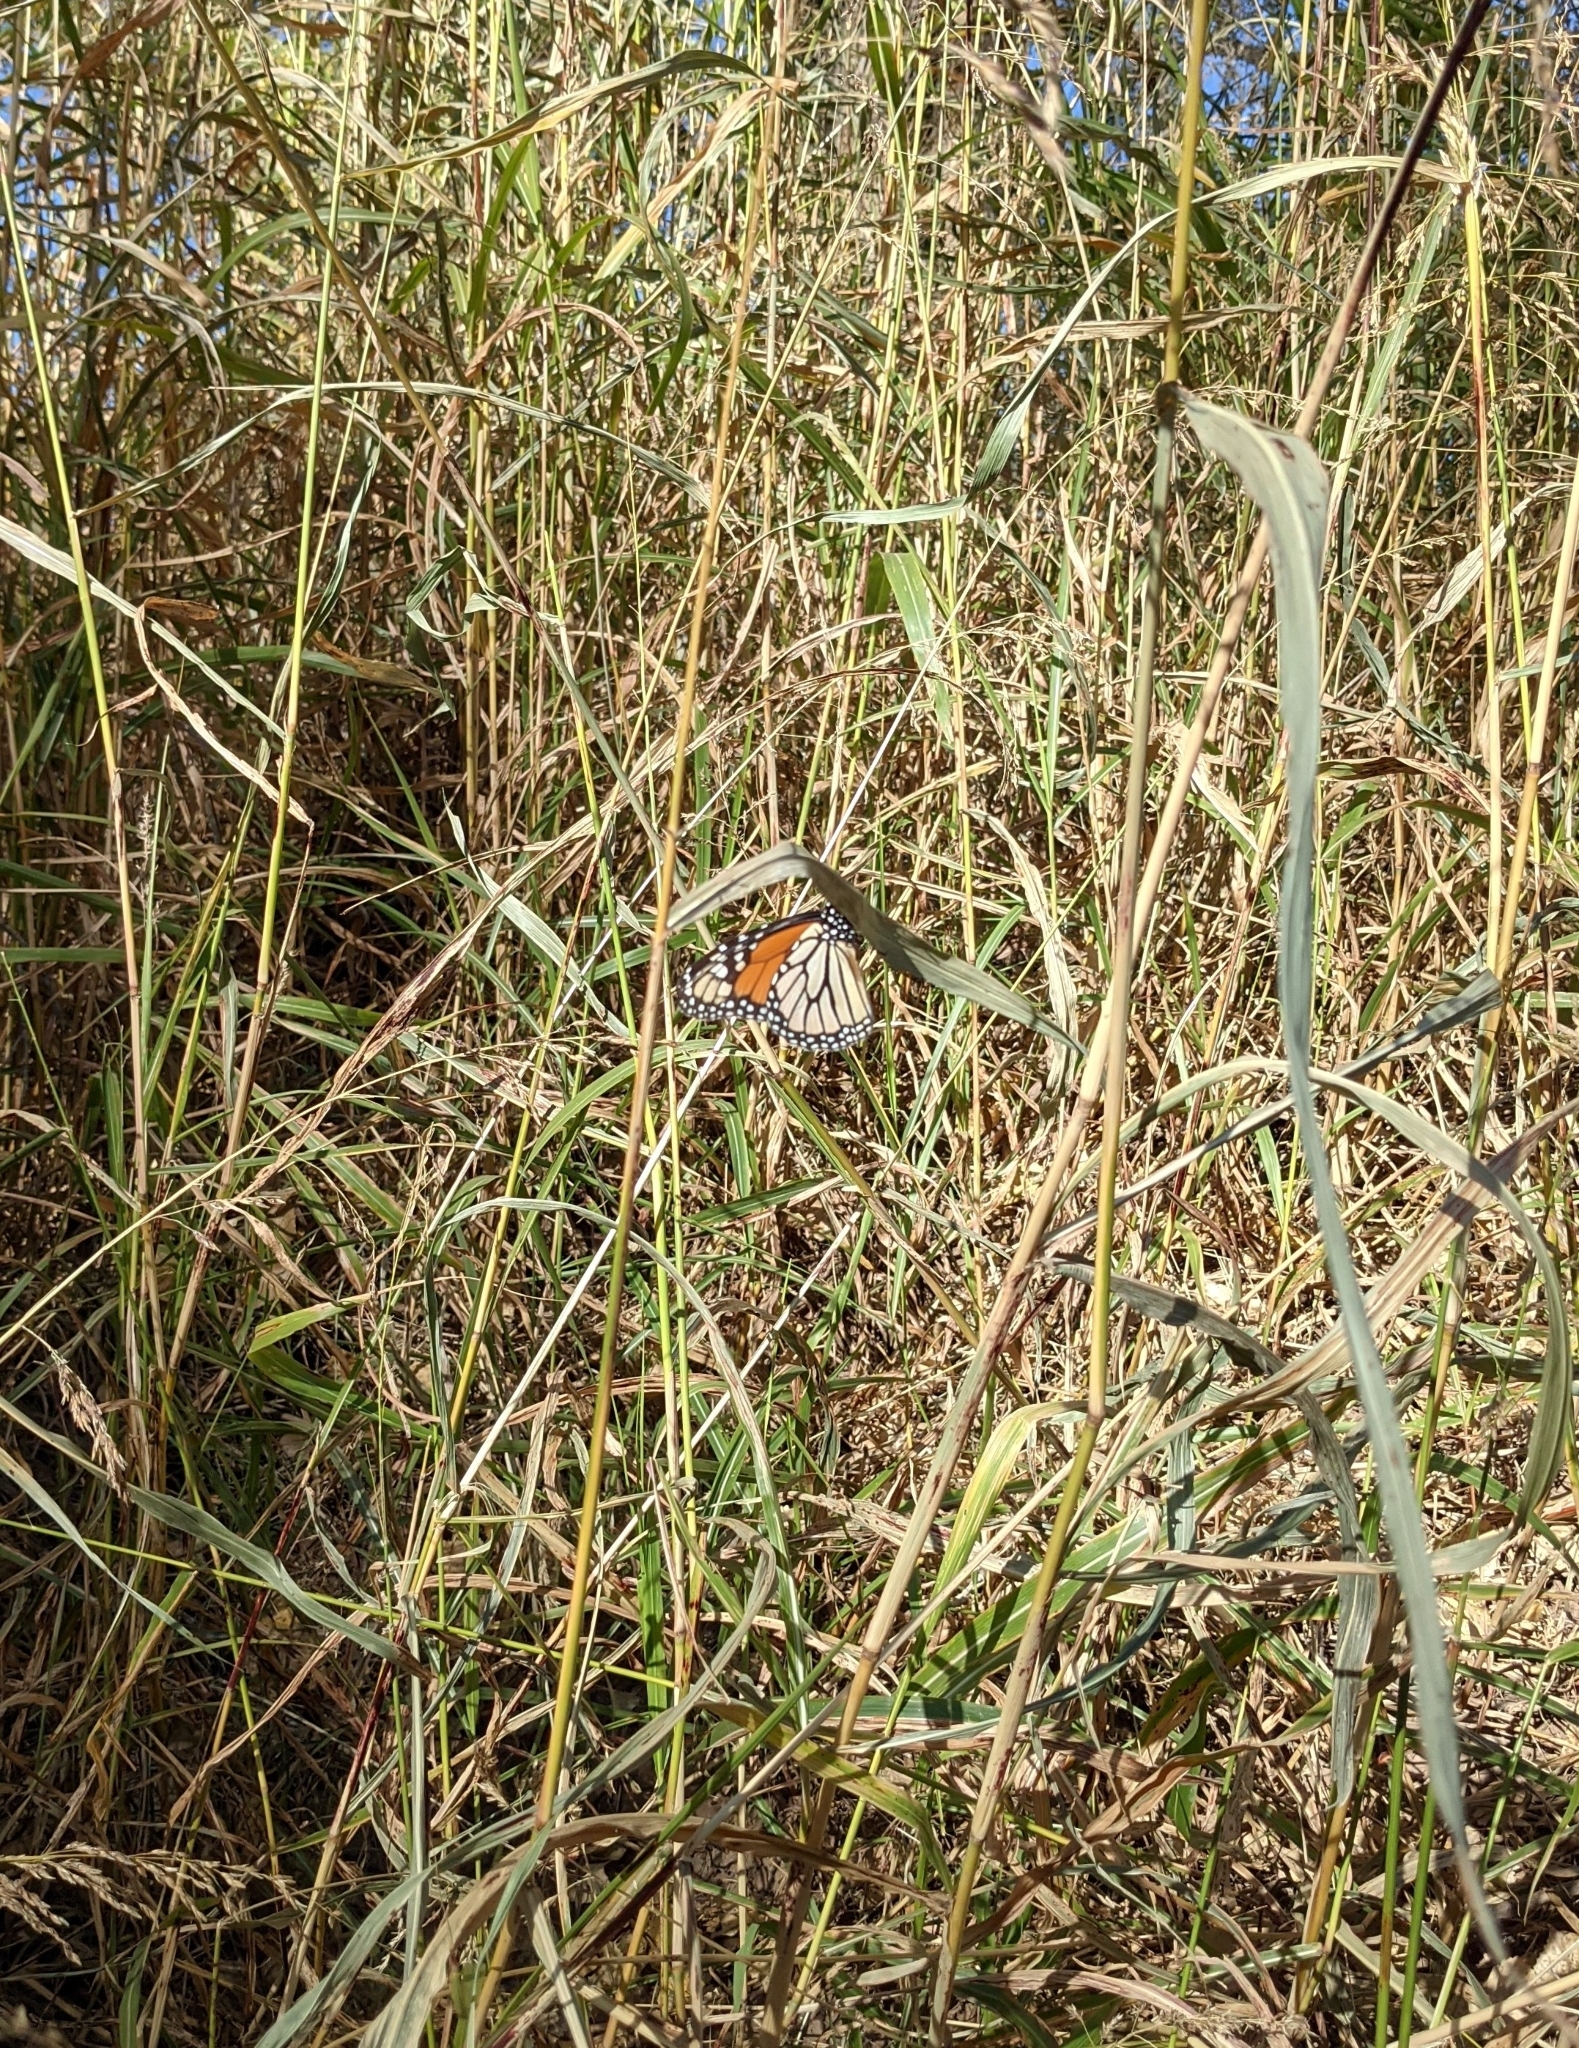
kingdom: Animalia
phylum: Arthropoda
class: Insecta
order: Lepidoptera
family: Nymphalidae
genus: Danaus
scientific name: Danaus plexippus
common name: Monarch
